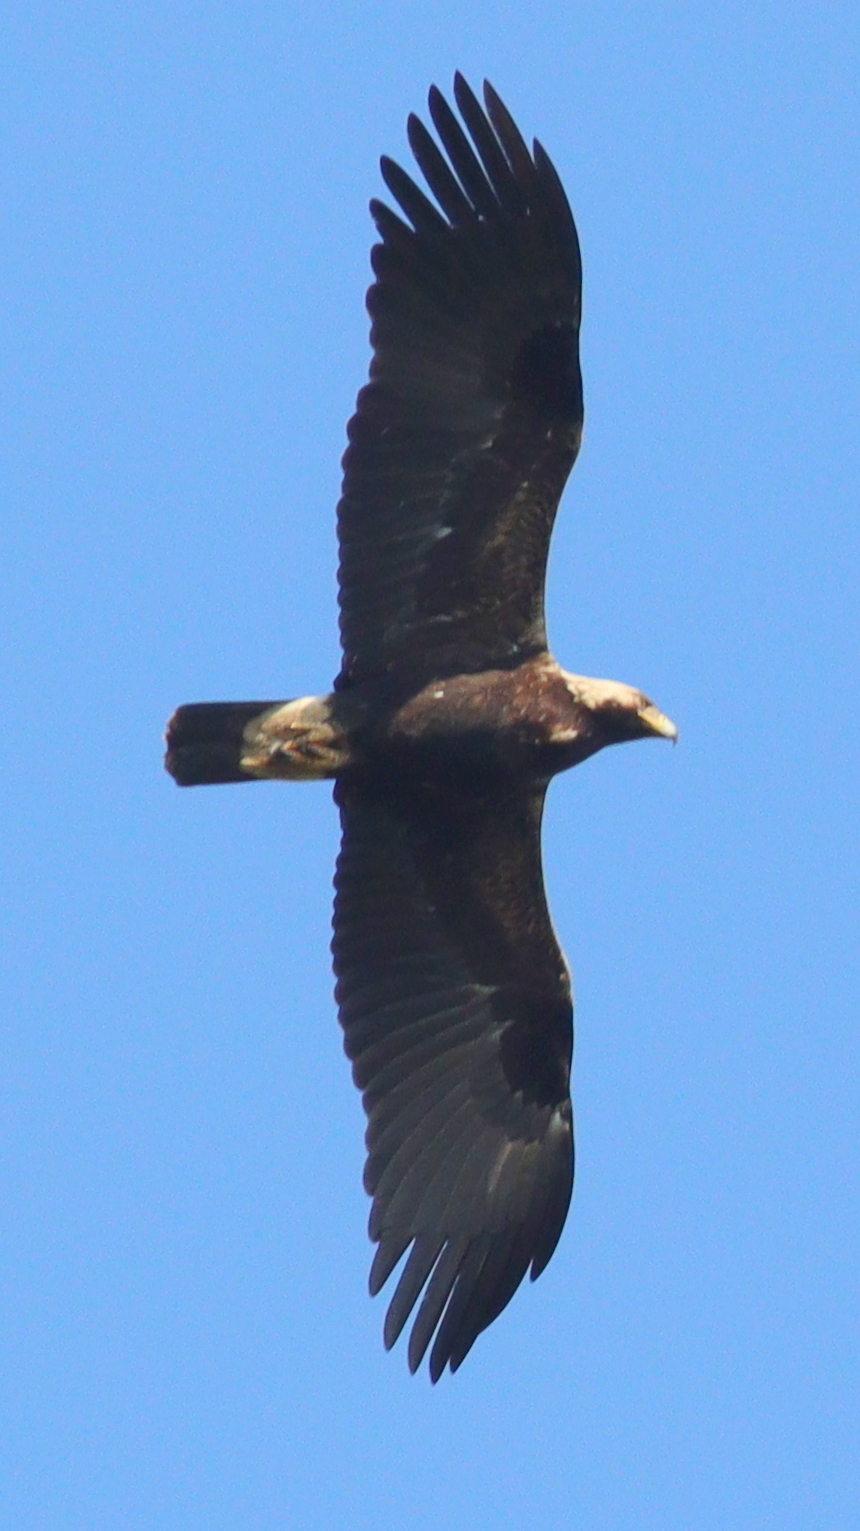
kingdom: Animalia
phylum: Chordata
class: Aves
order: Accipitriformes
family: Accipitridae
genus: Aquila
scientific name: Aquila heliaca
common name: Eastern imperial eagle
